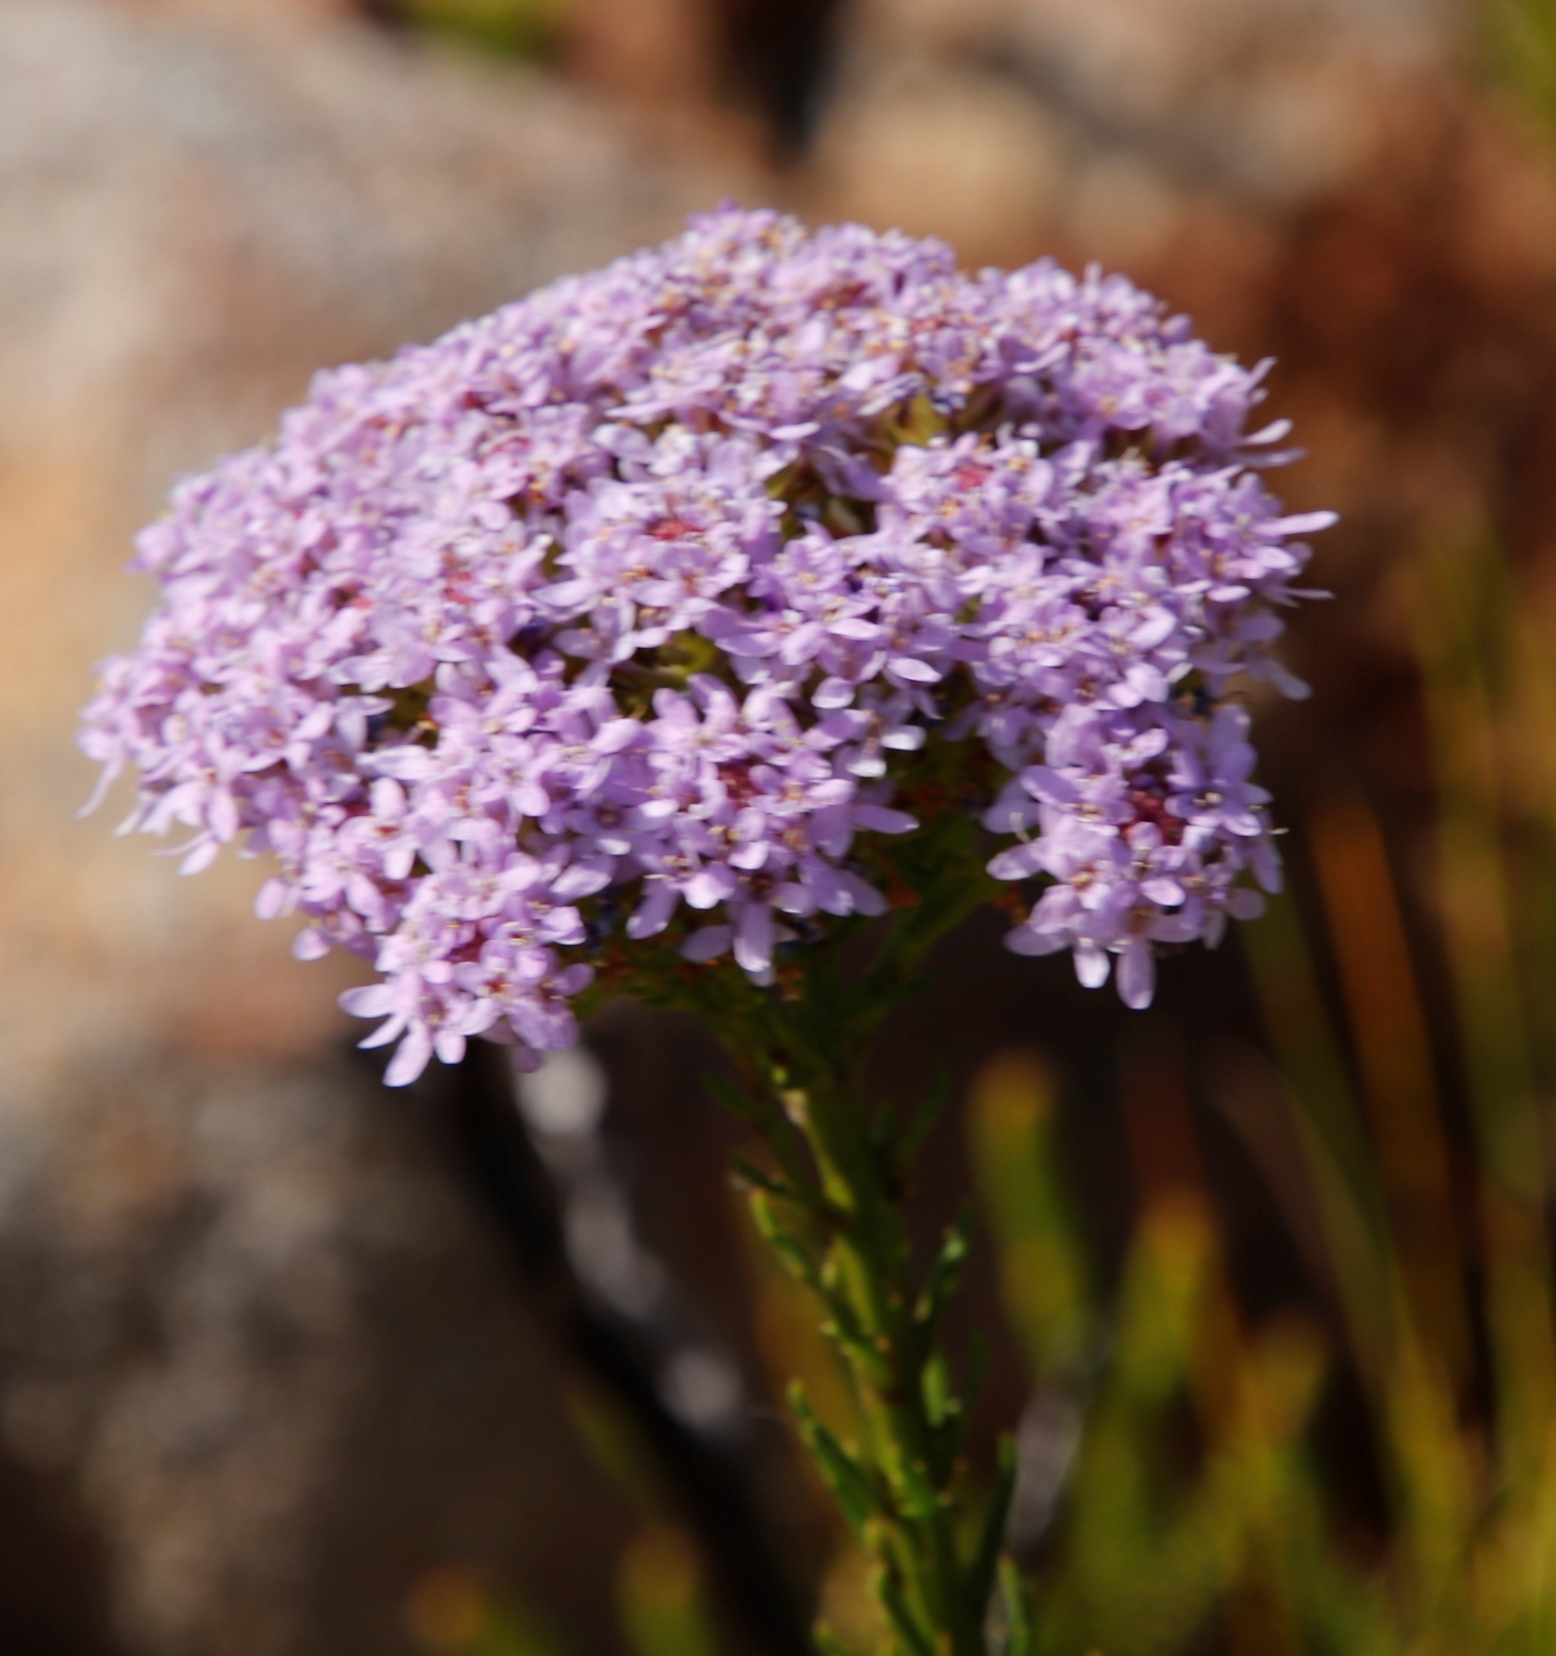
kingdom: Plantae
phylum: Tracheophyta
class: Magnoliopsida
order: Lamiales
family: Scrophulariaceae
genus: Pseudoselago
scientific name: Pseudoselago spuria
